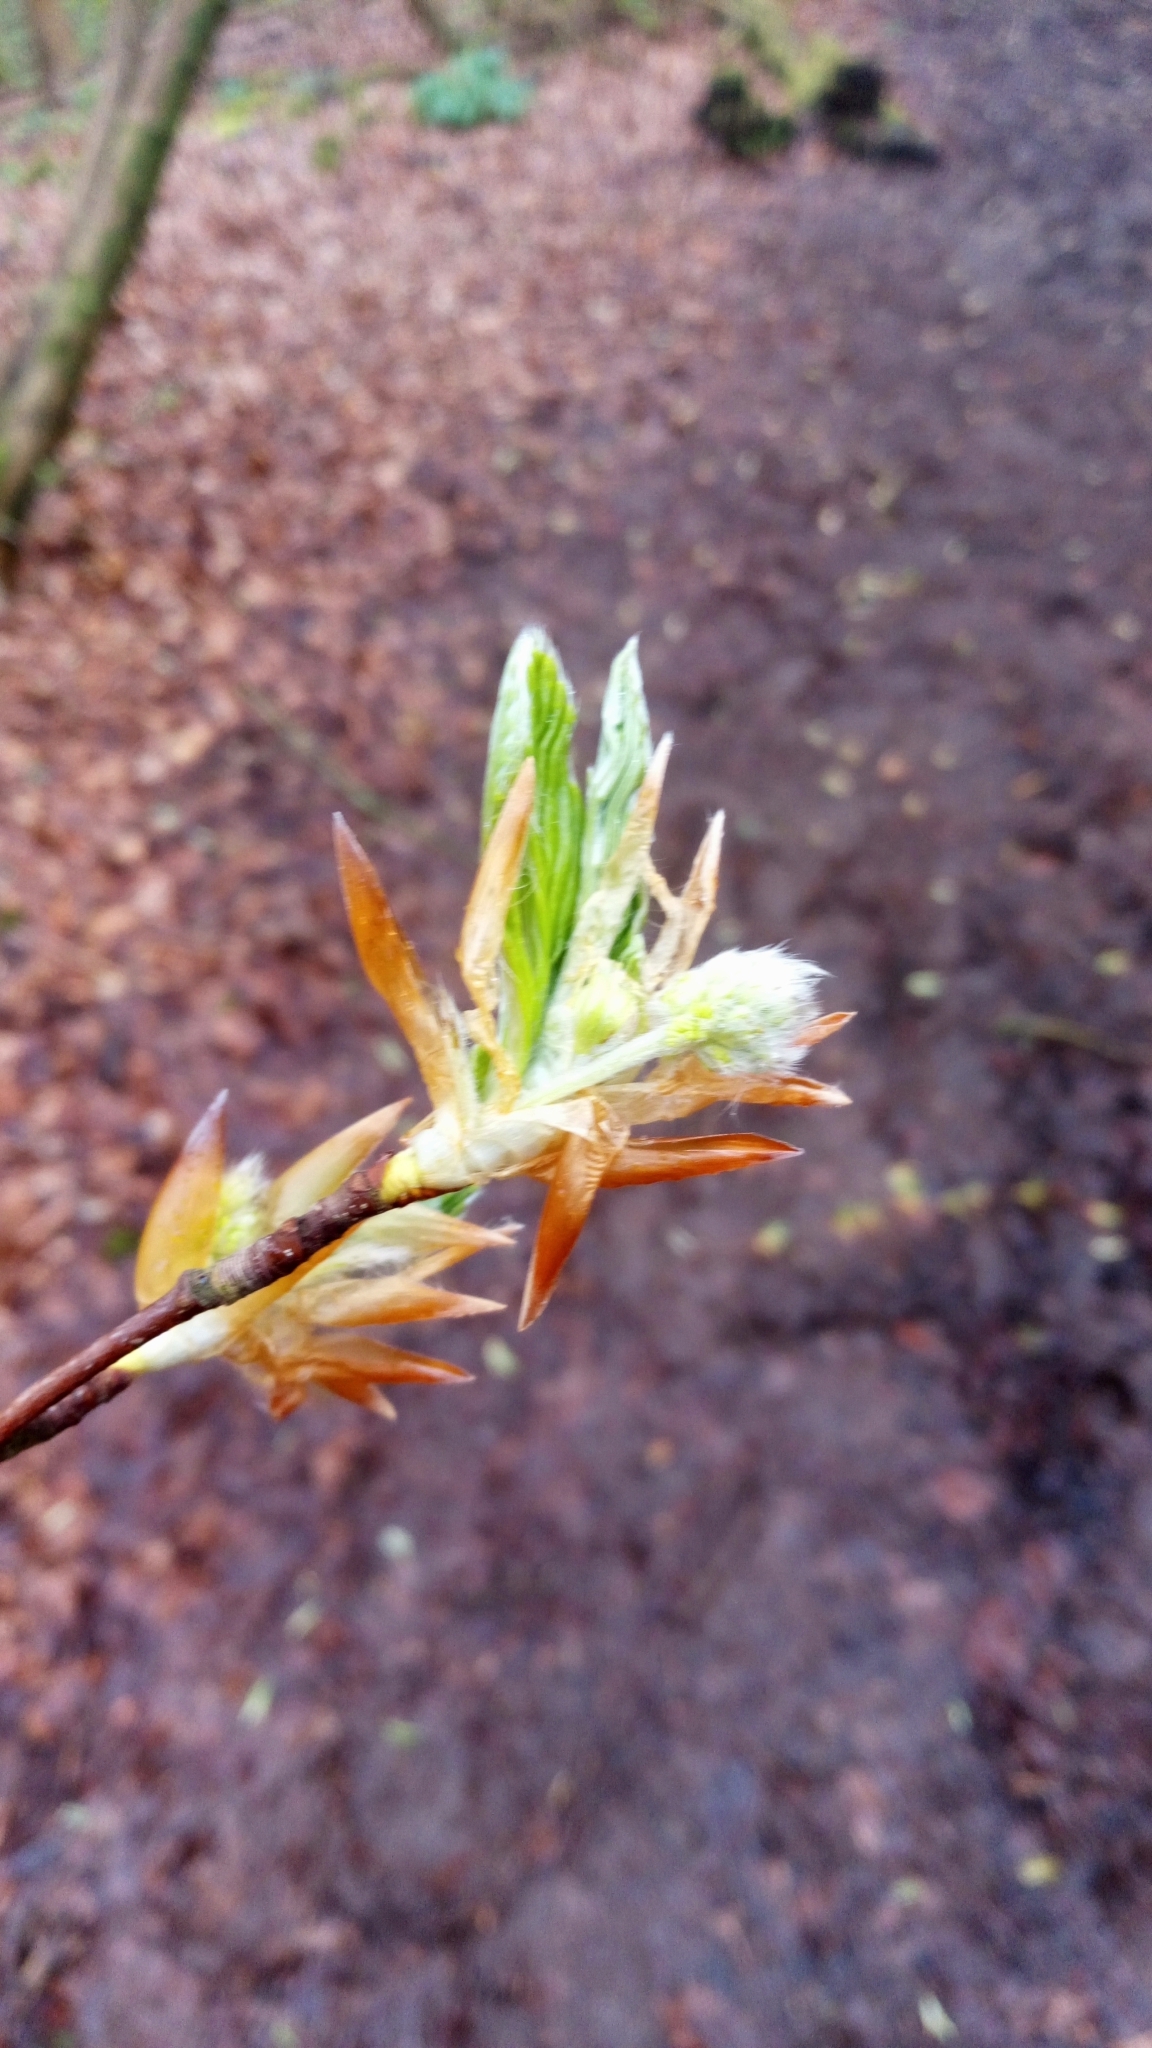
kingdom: Plantae
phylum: Tracheophyta
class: Magnoliopsida
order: Fagales
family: Fagaceae
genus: Fagus
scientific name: Fagus sylvatica
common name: Beech
